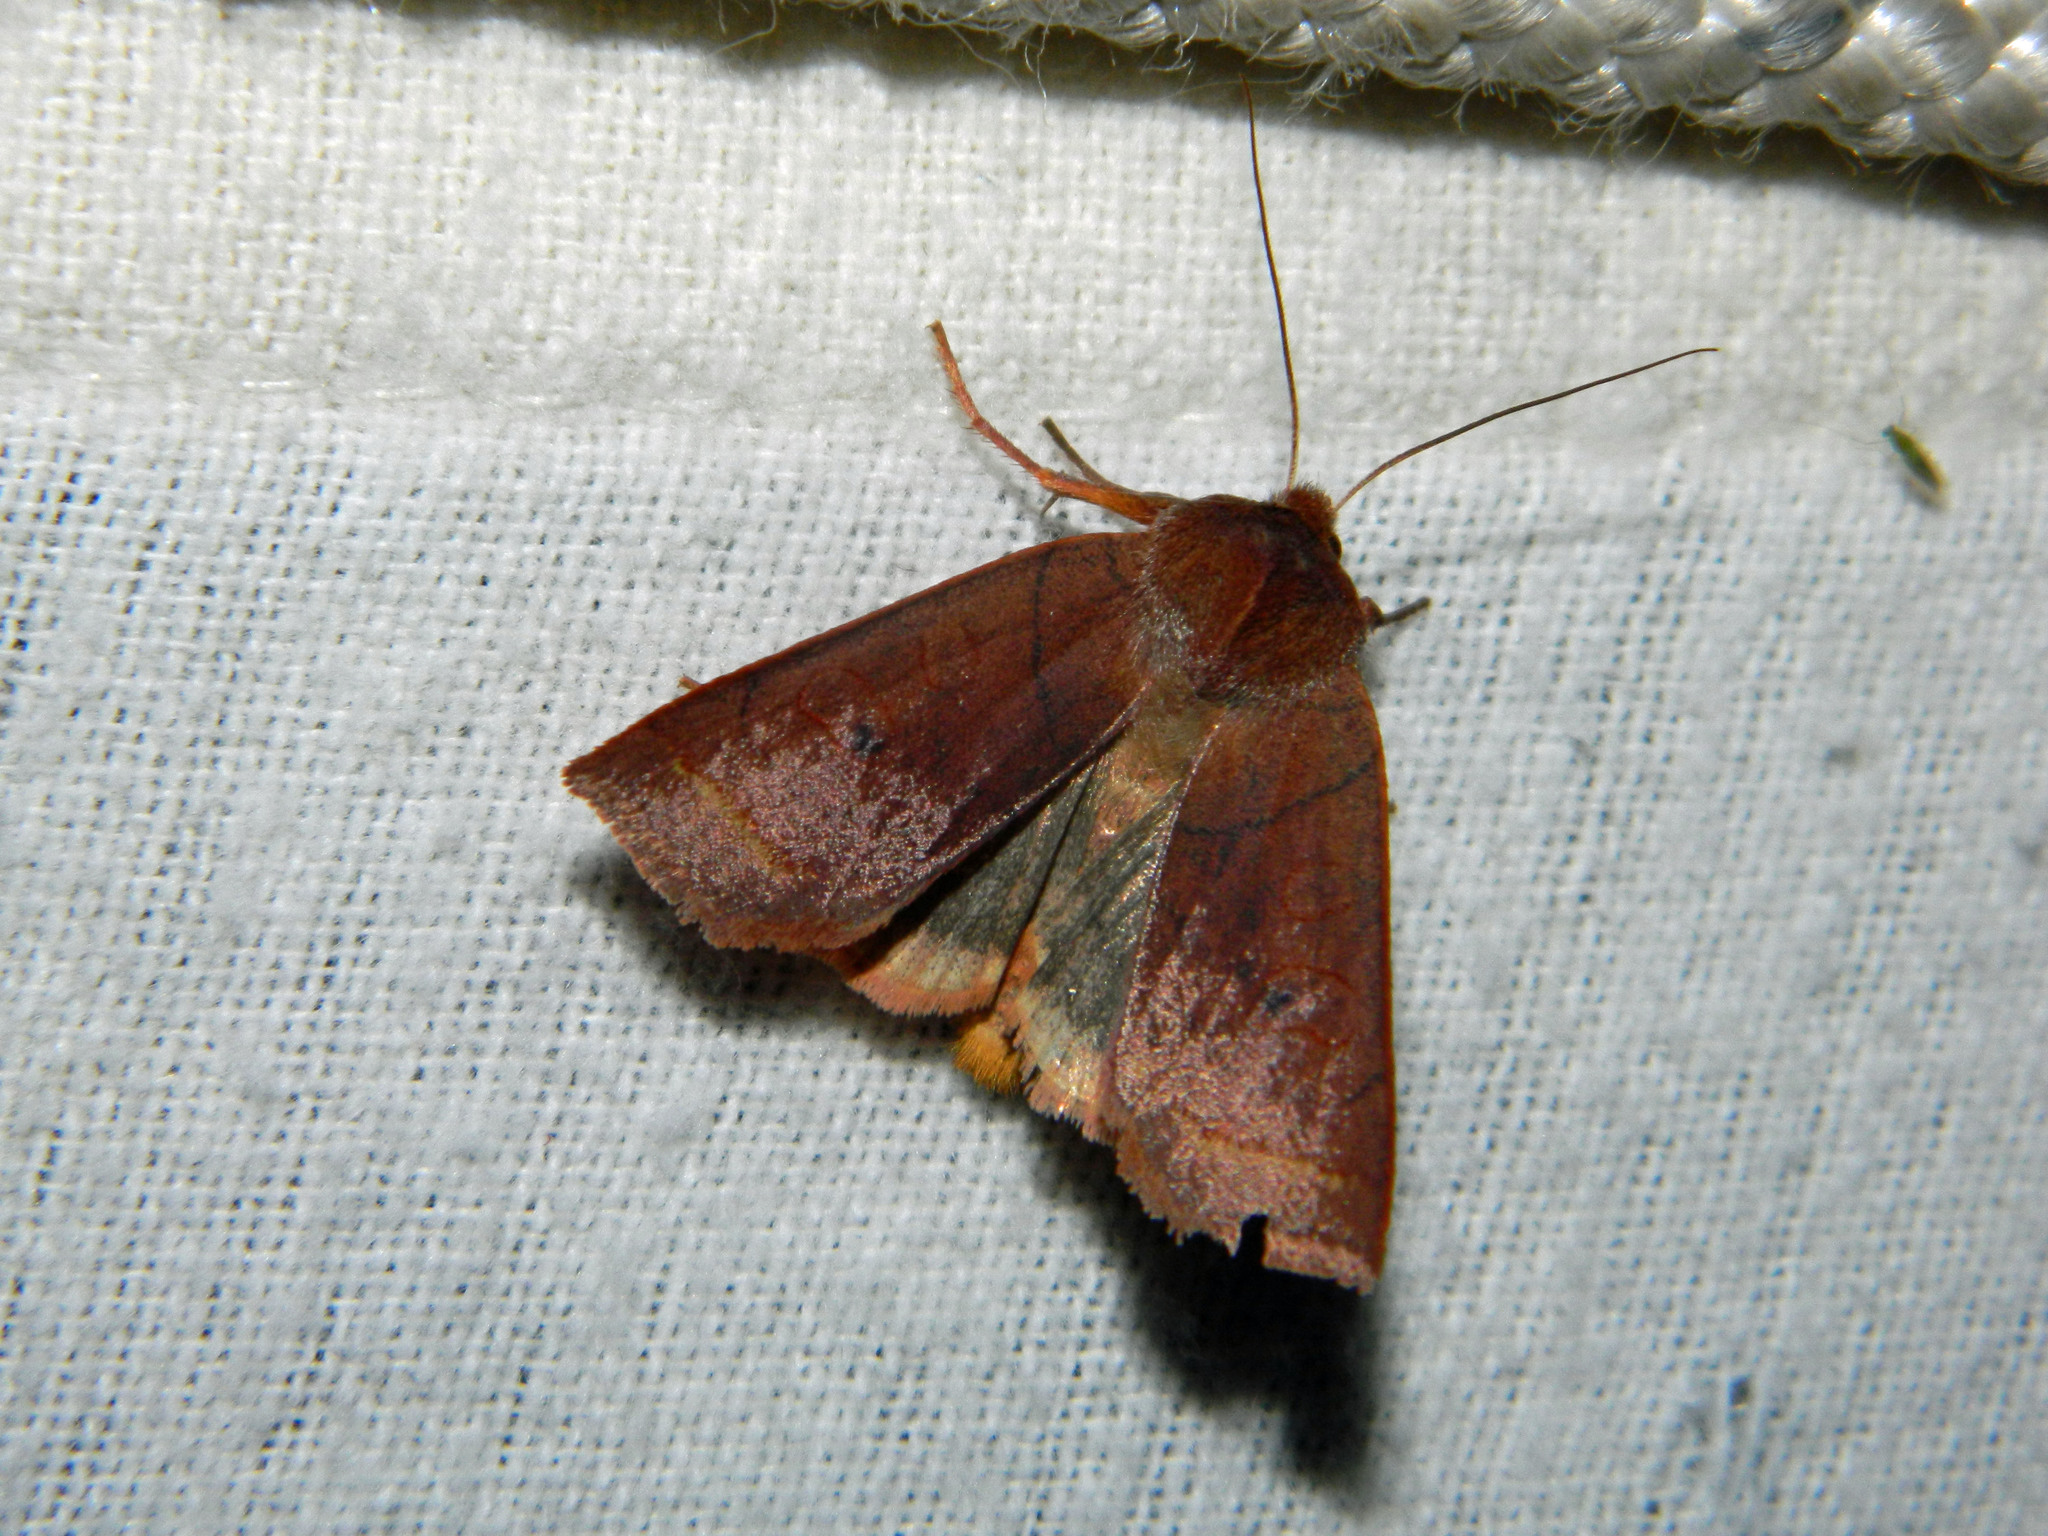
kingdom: Animalia
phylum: Arthropoda
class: Insecta
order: Lepidoptera
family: Noctuidae
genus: Epiglaea
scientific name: Epiglaea apiata
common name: Pointed sallow
